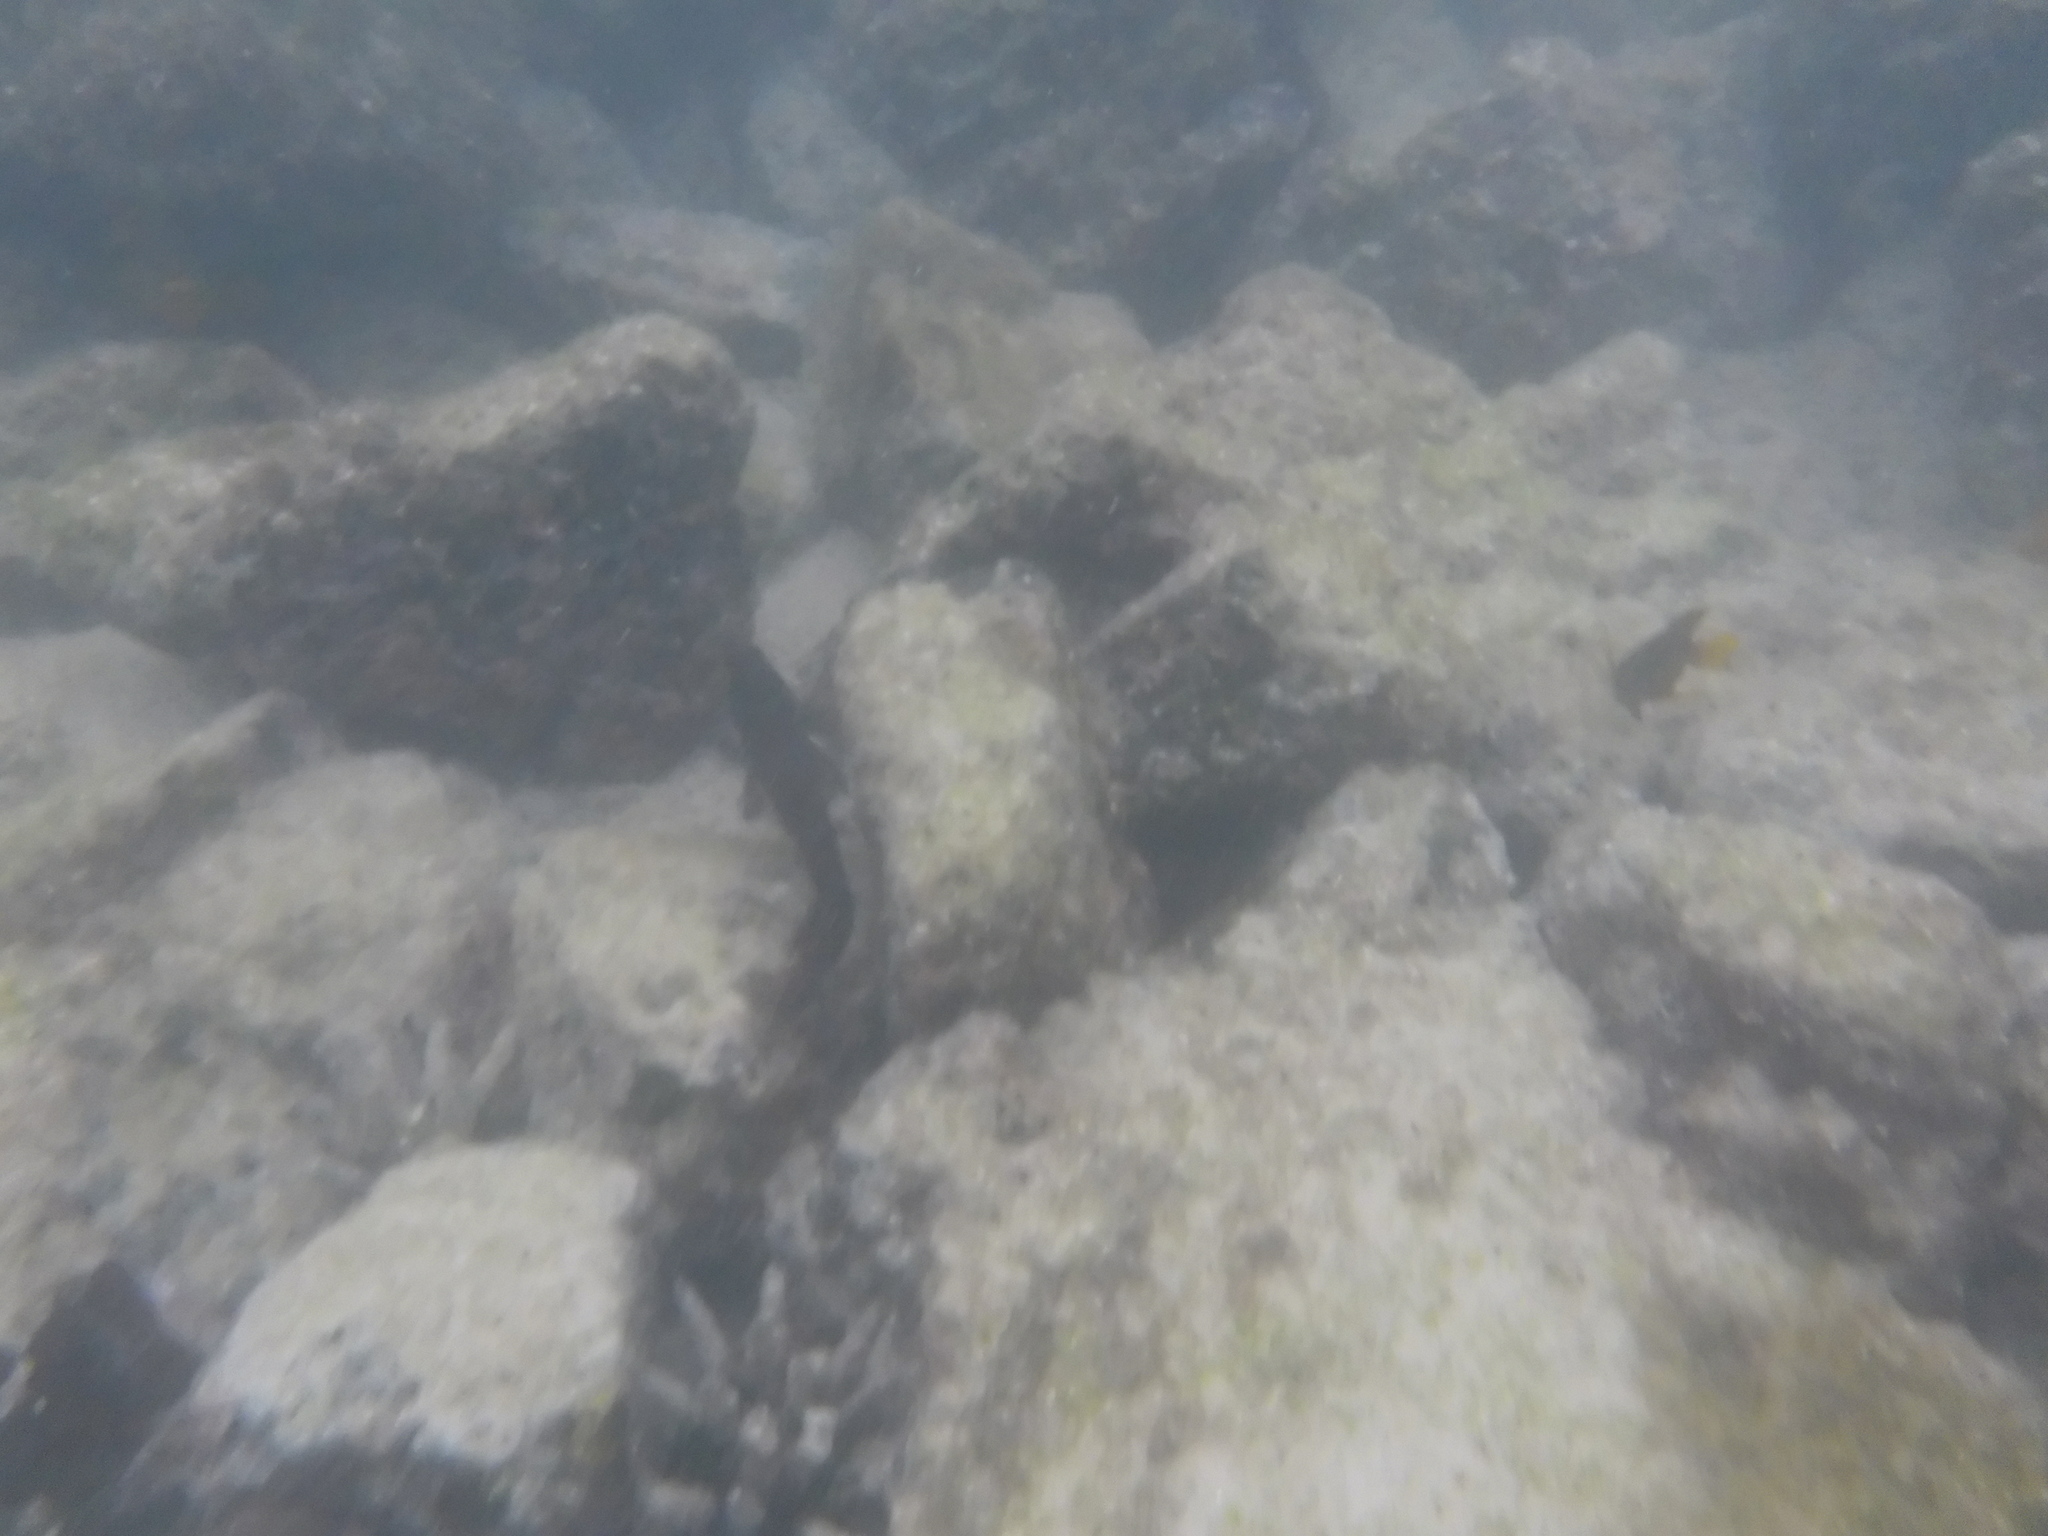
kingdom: Animalia
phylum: Chordata
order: Perciformes
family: Pomacentridae
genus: Stegastes
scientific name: Stegastes arcifrons
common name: Galapagos gregory
